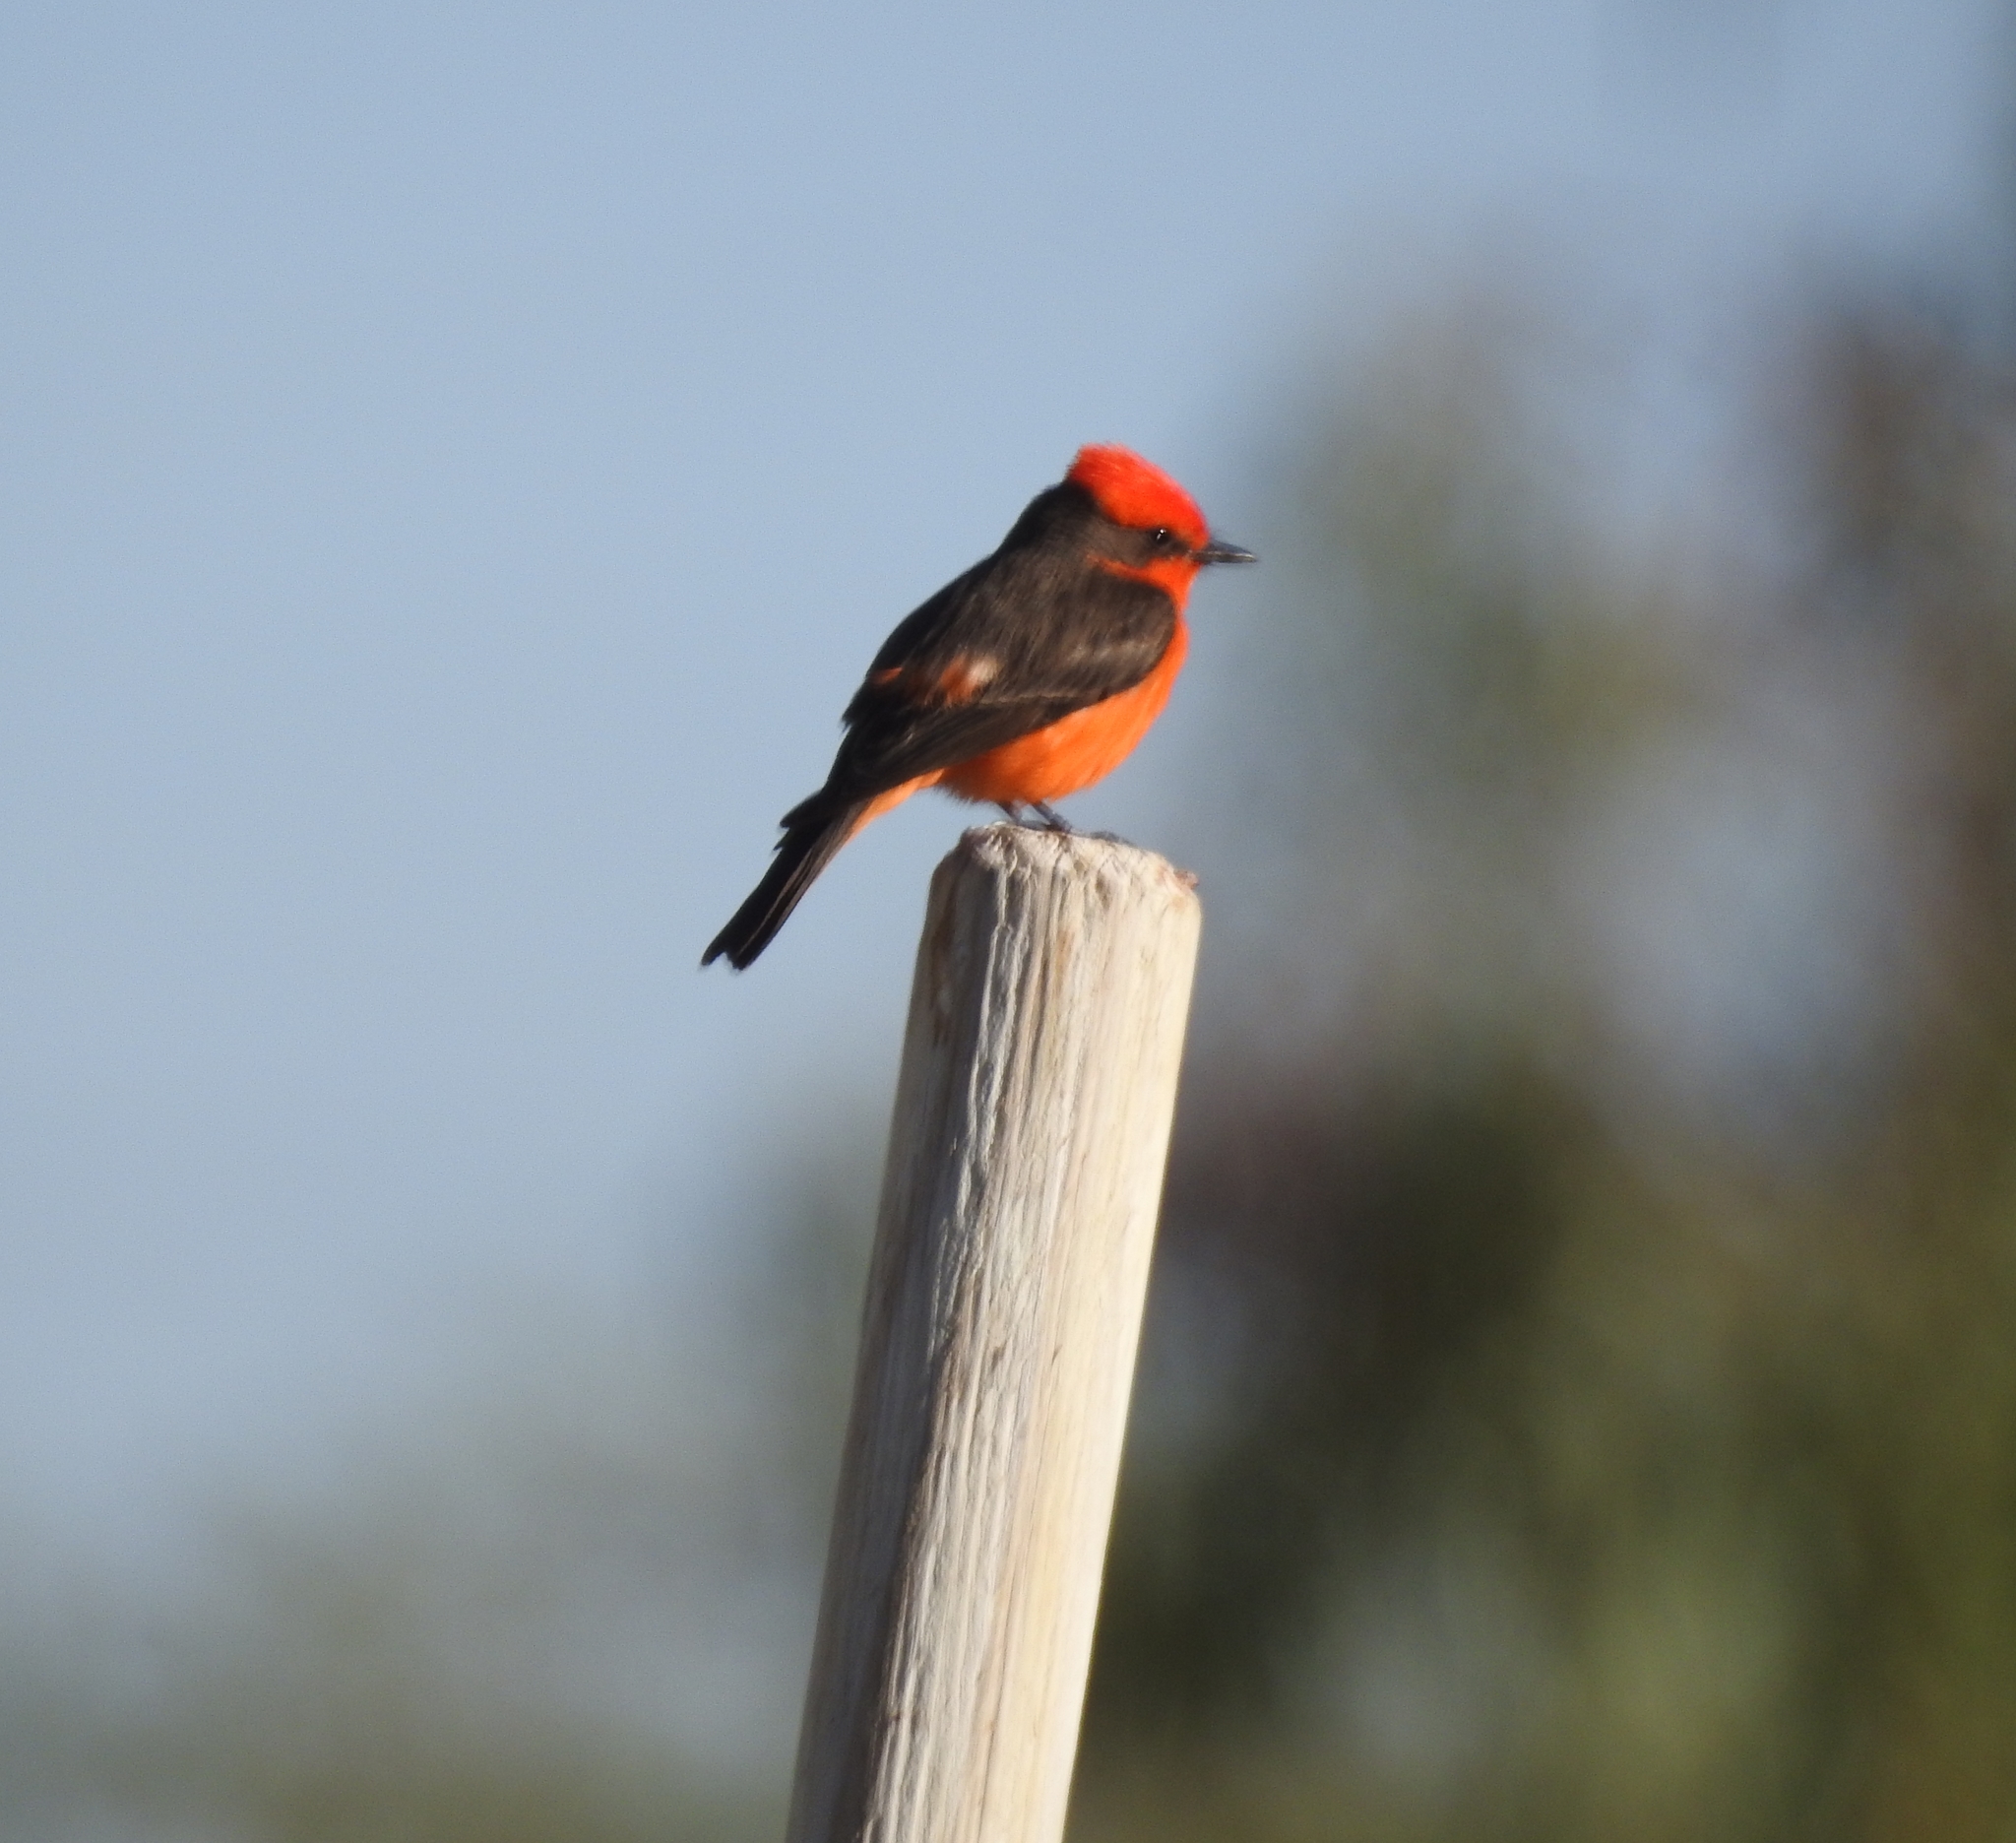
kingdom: Animalia
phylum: Chordata
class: Aves
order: Passeriformes
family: Tyrannidae
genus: Pyrocephalus
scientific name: Pyrocephalus rubinus
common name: Vermilion flycatcher
